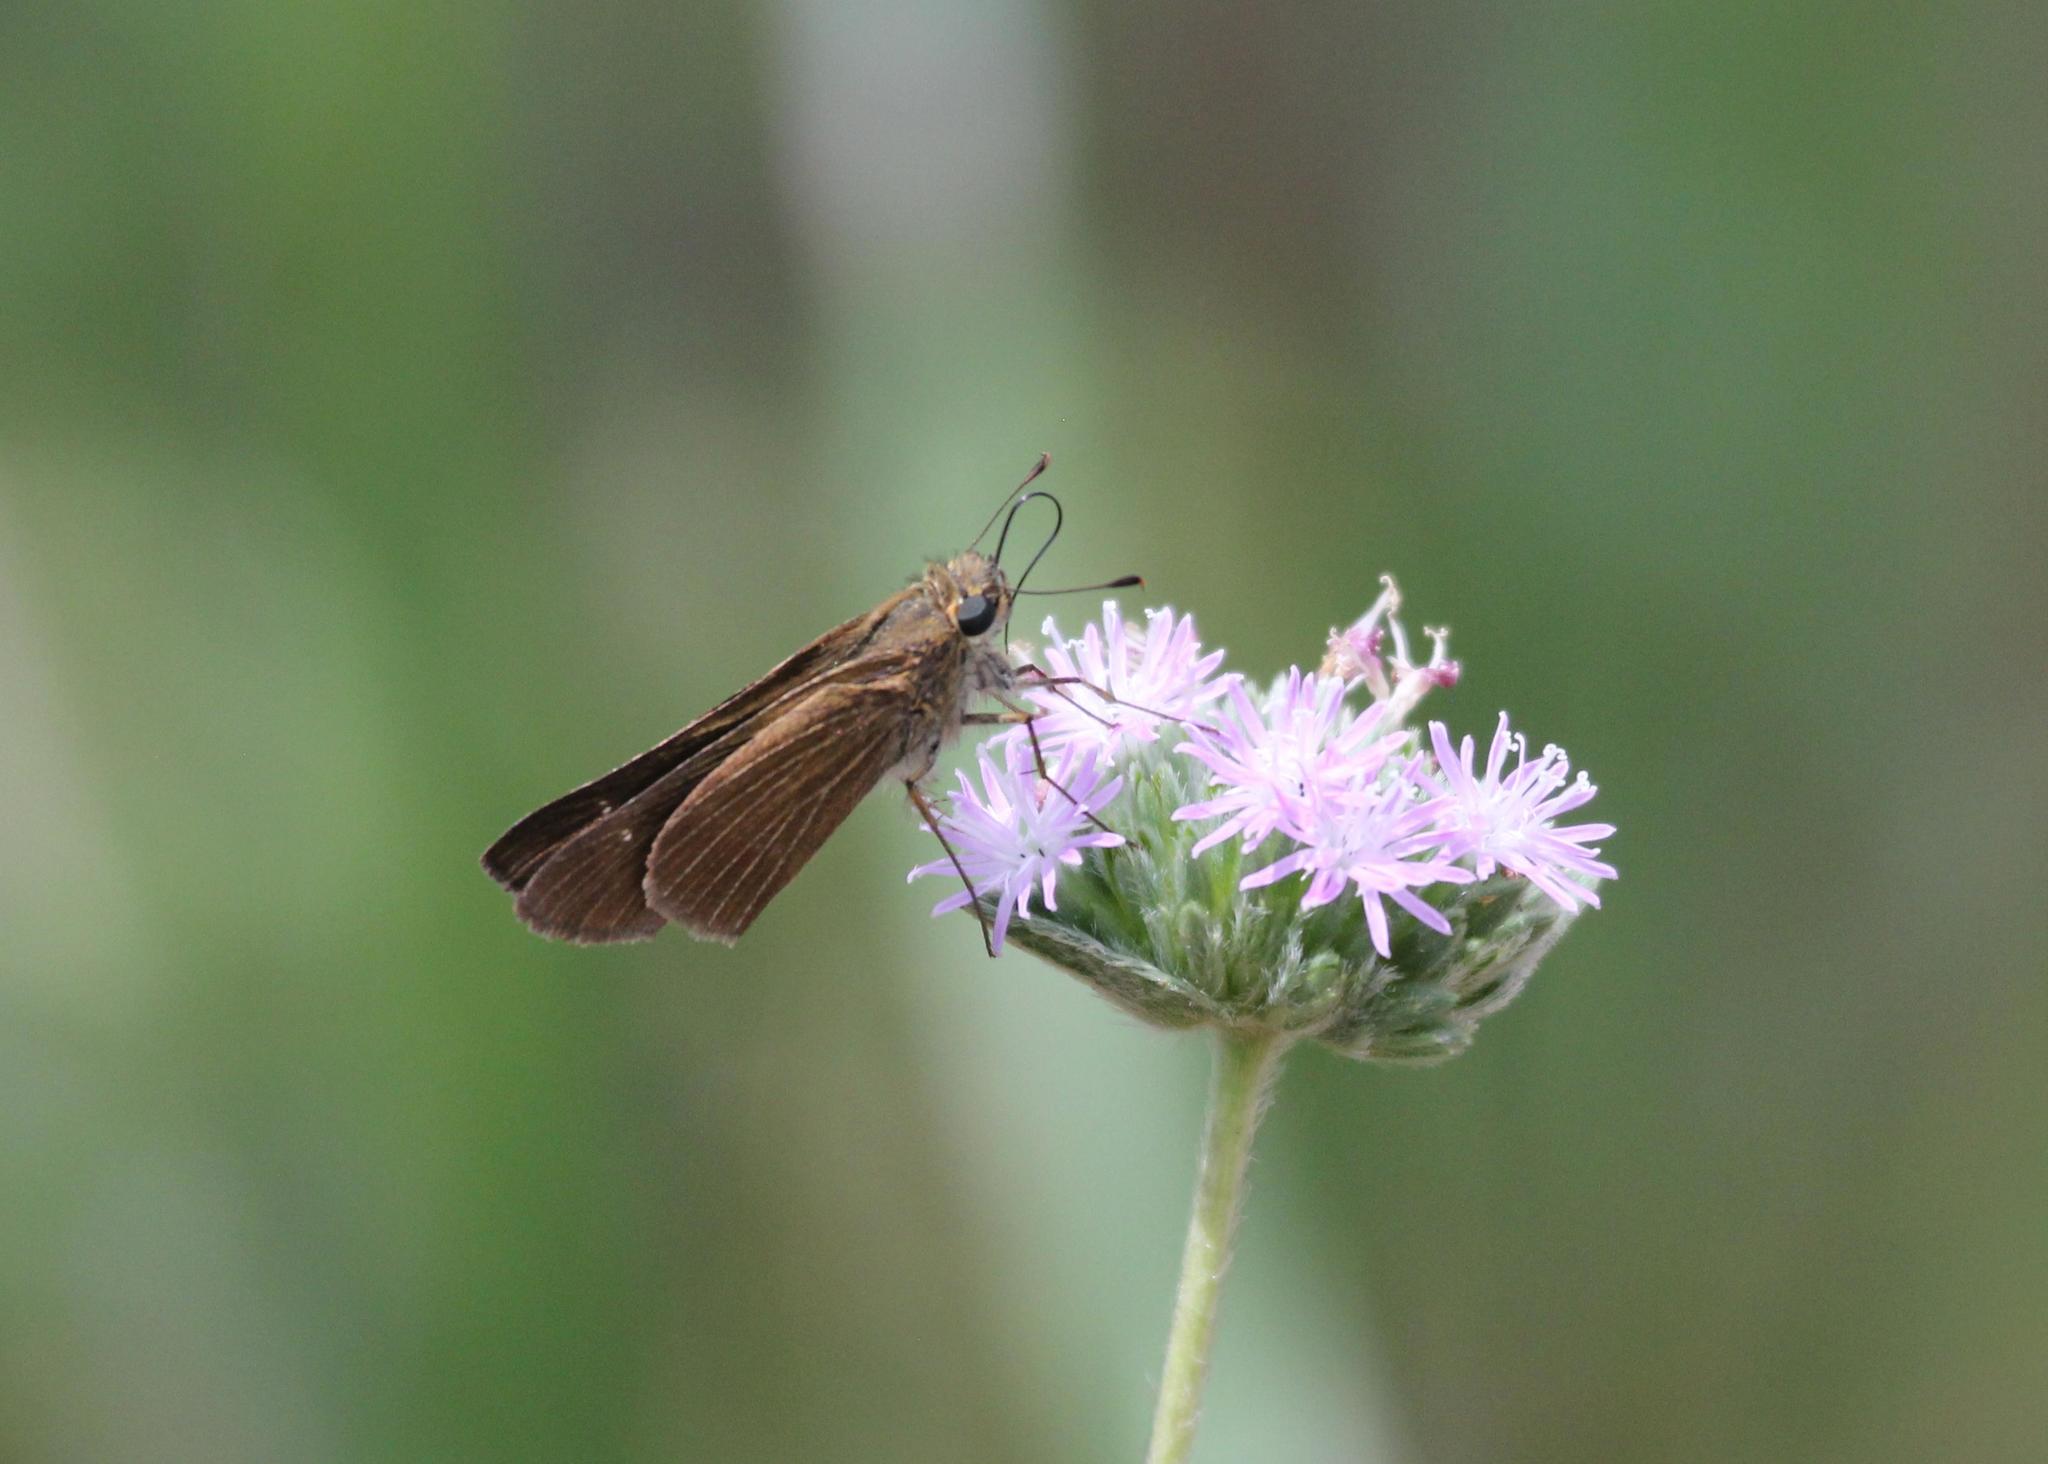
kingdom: Animalia
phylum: Arthropoda
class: Insecta
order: Lepidoptera
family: Hesperiidae
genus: Panoquina
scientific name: Panoquina ocola
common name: Ocola skipper
